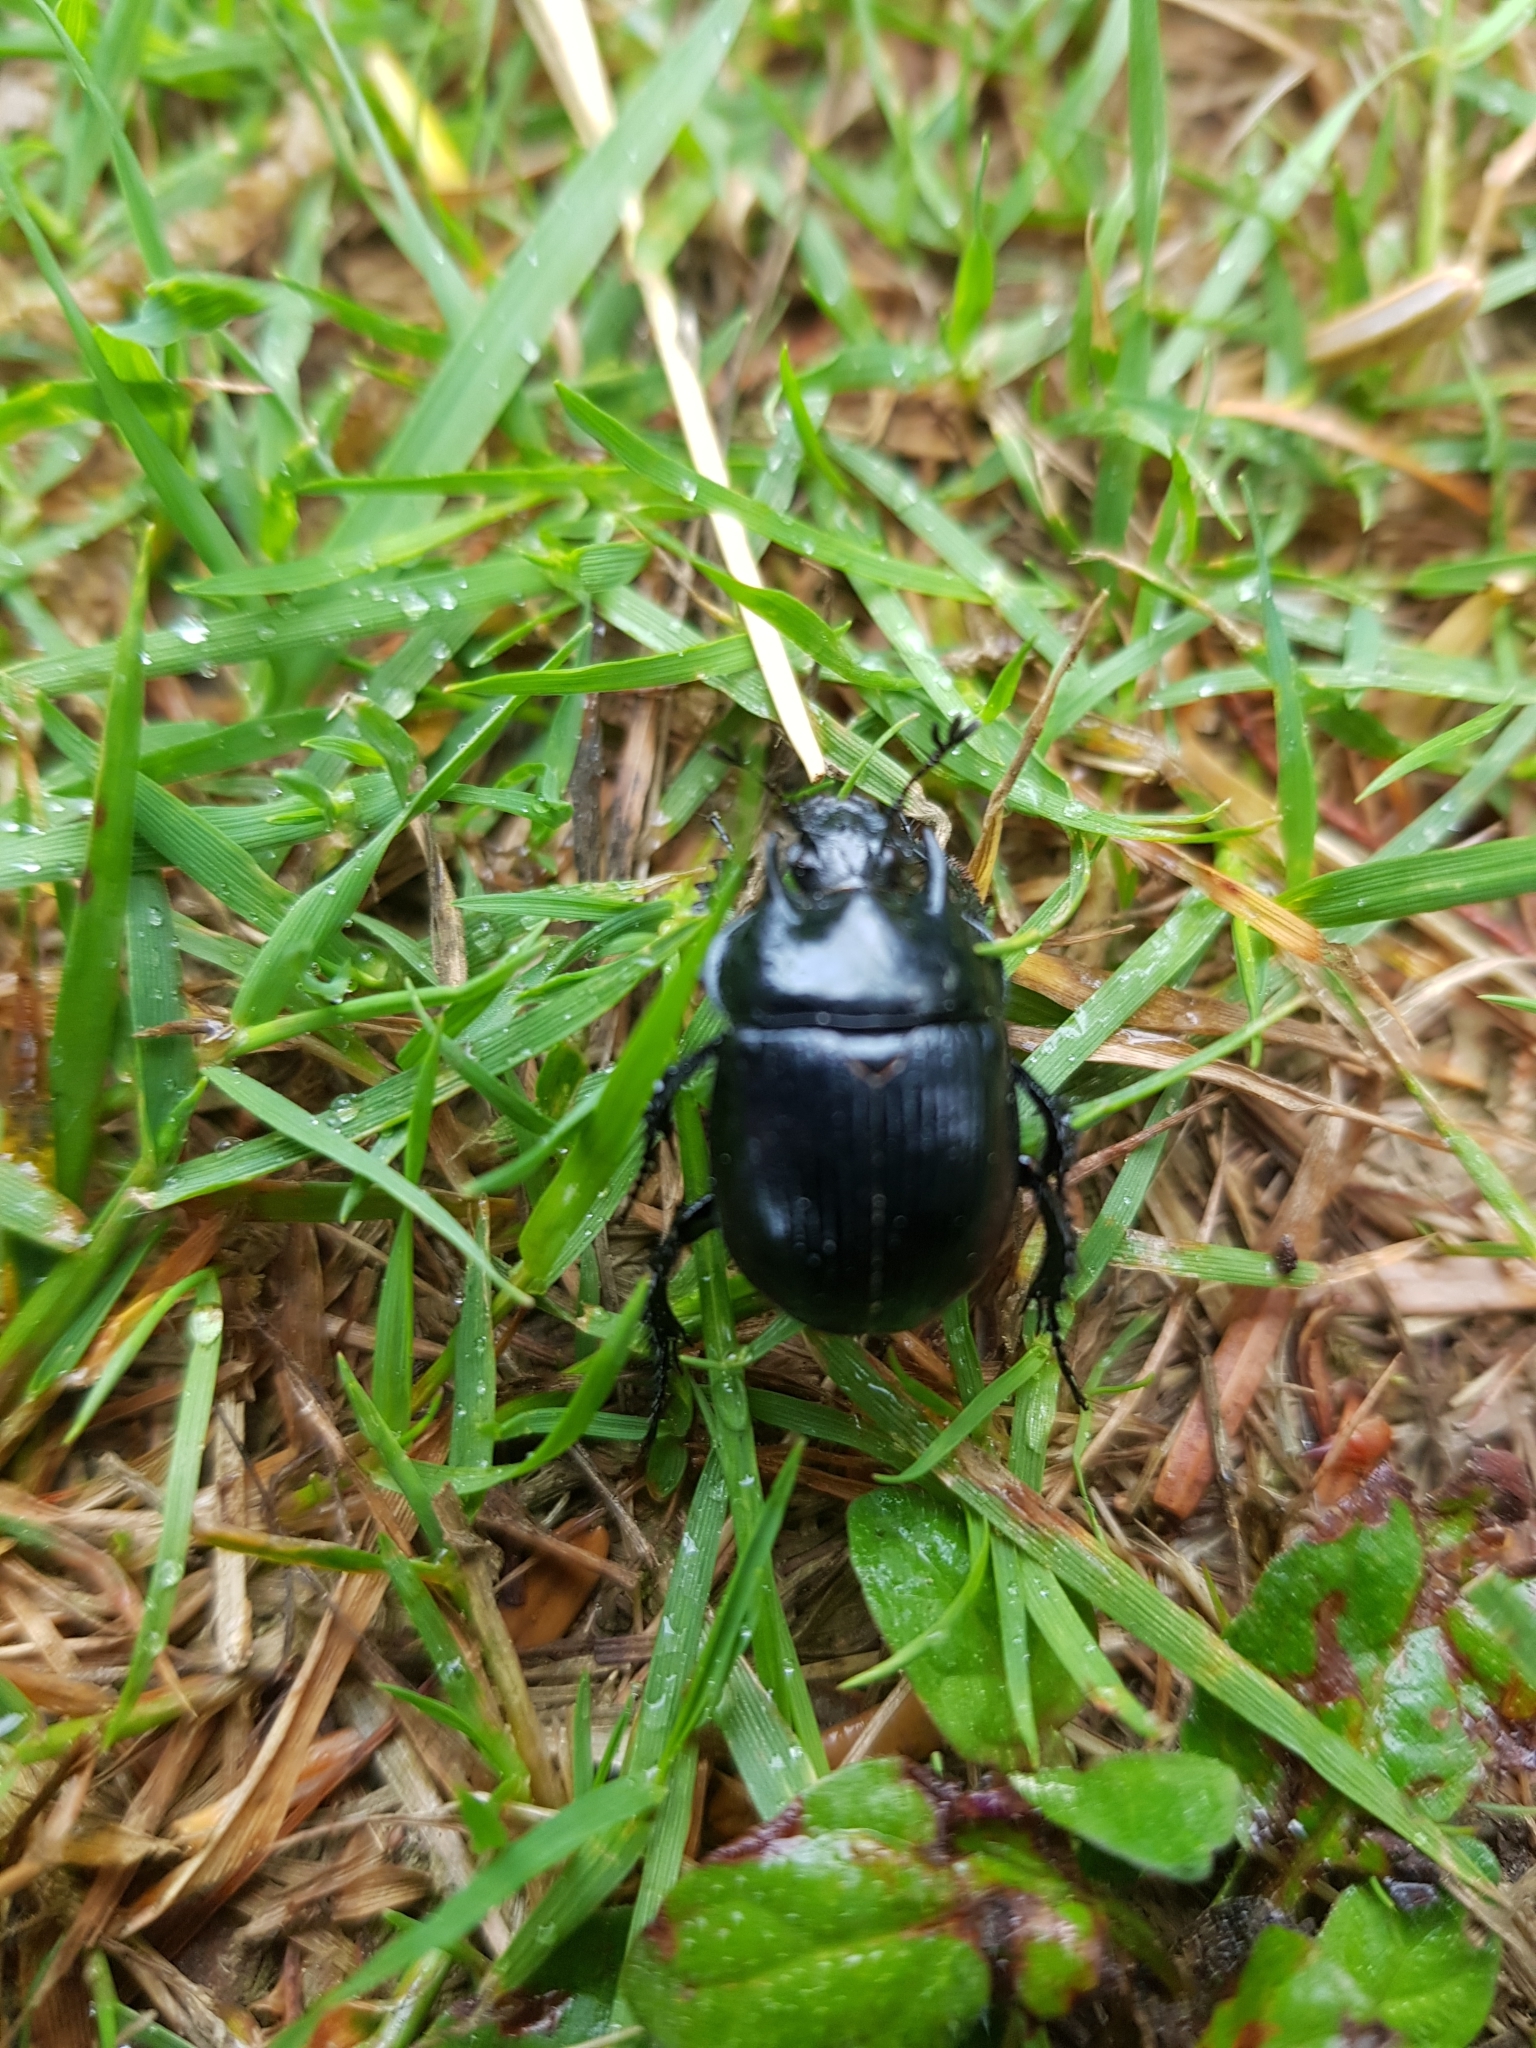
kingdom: Animalia
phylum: Arthropoda
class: Insecta
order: Coleoptera
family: Geotrupidae
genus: Typhaeus
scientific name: Typhaeus typhoeus
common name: Minotaur beetle
